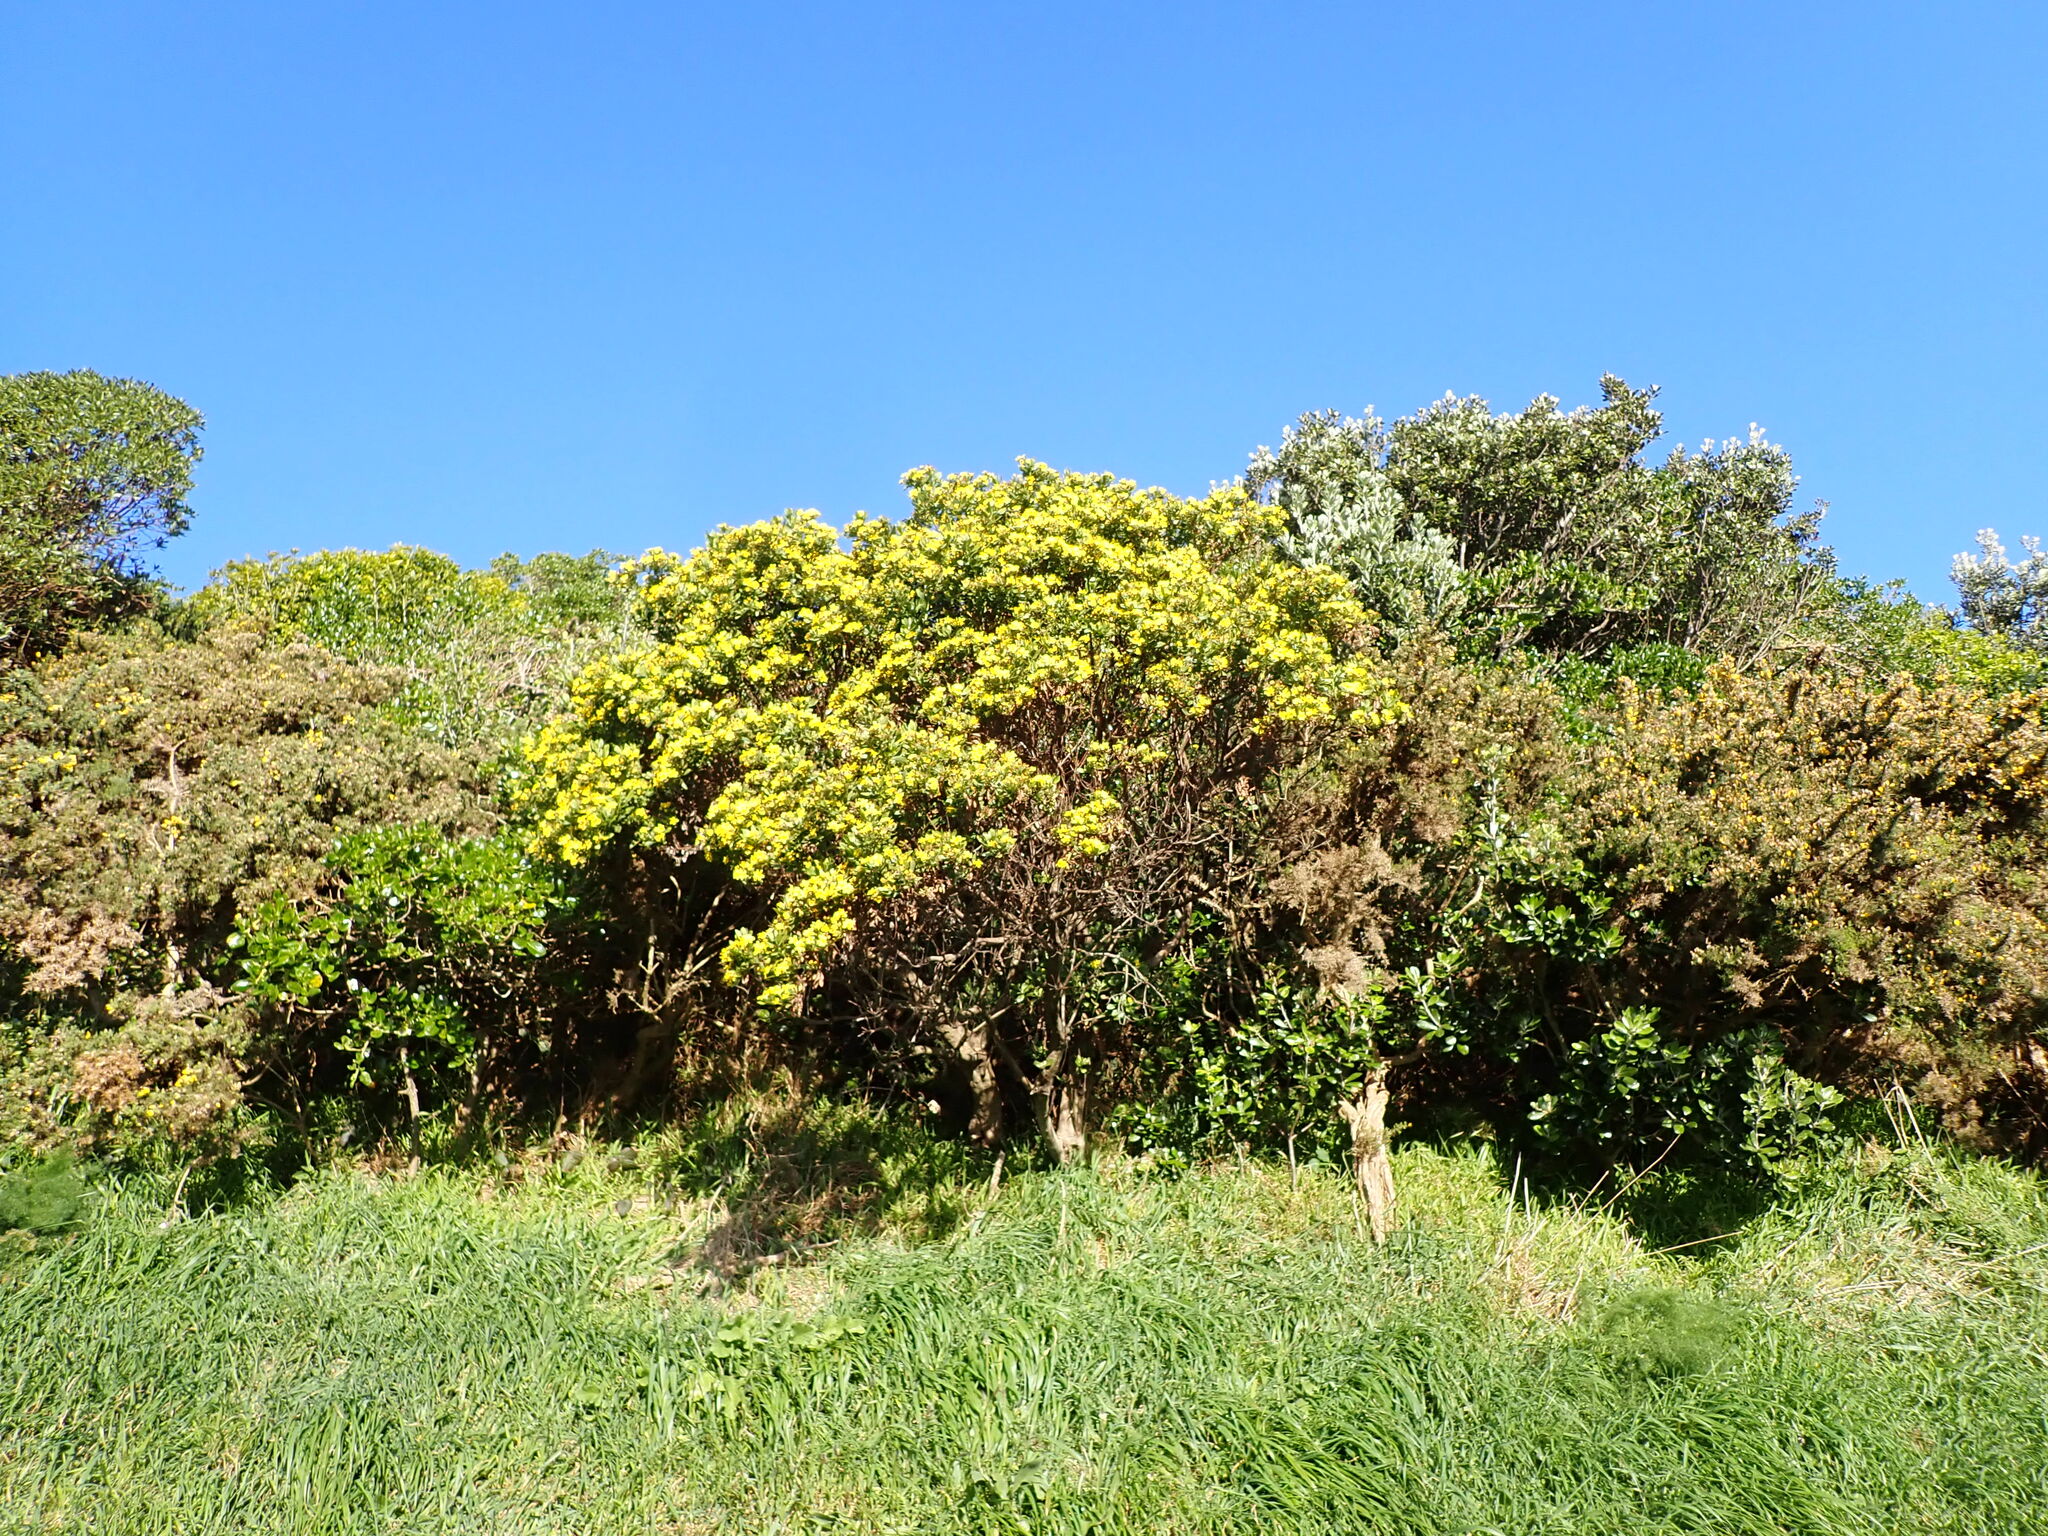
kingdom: Plantae
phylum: Tracheophyta
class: Magnoliopsida
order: Asterales
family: Asteraceae
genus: Osteospermum
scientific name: Osteospermum moniliferum
